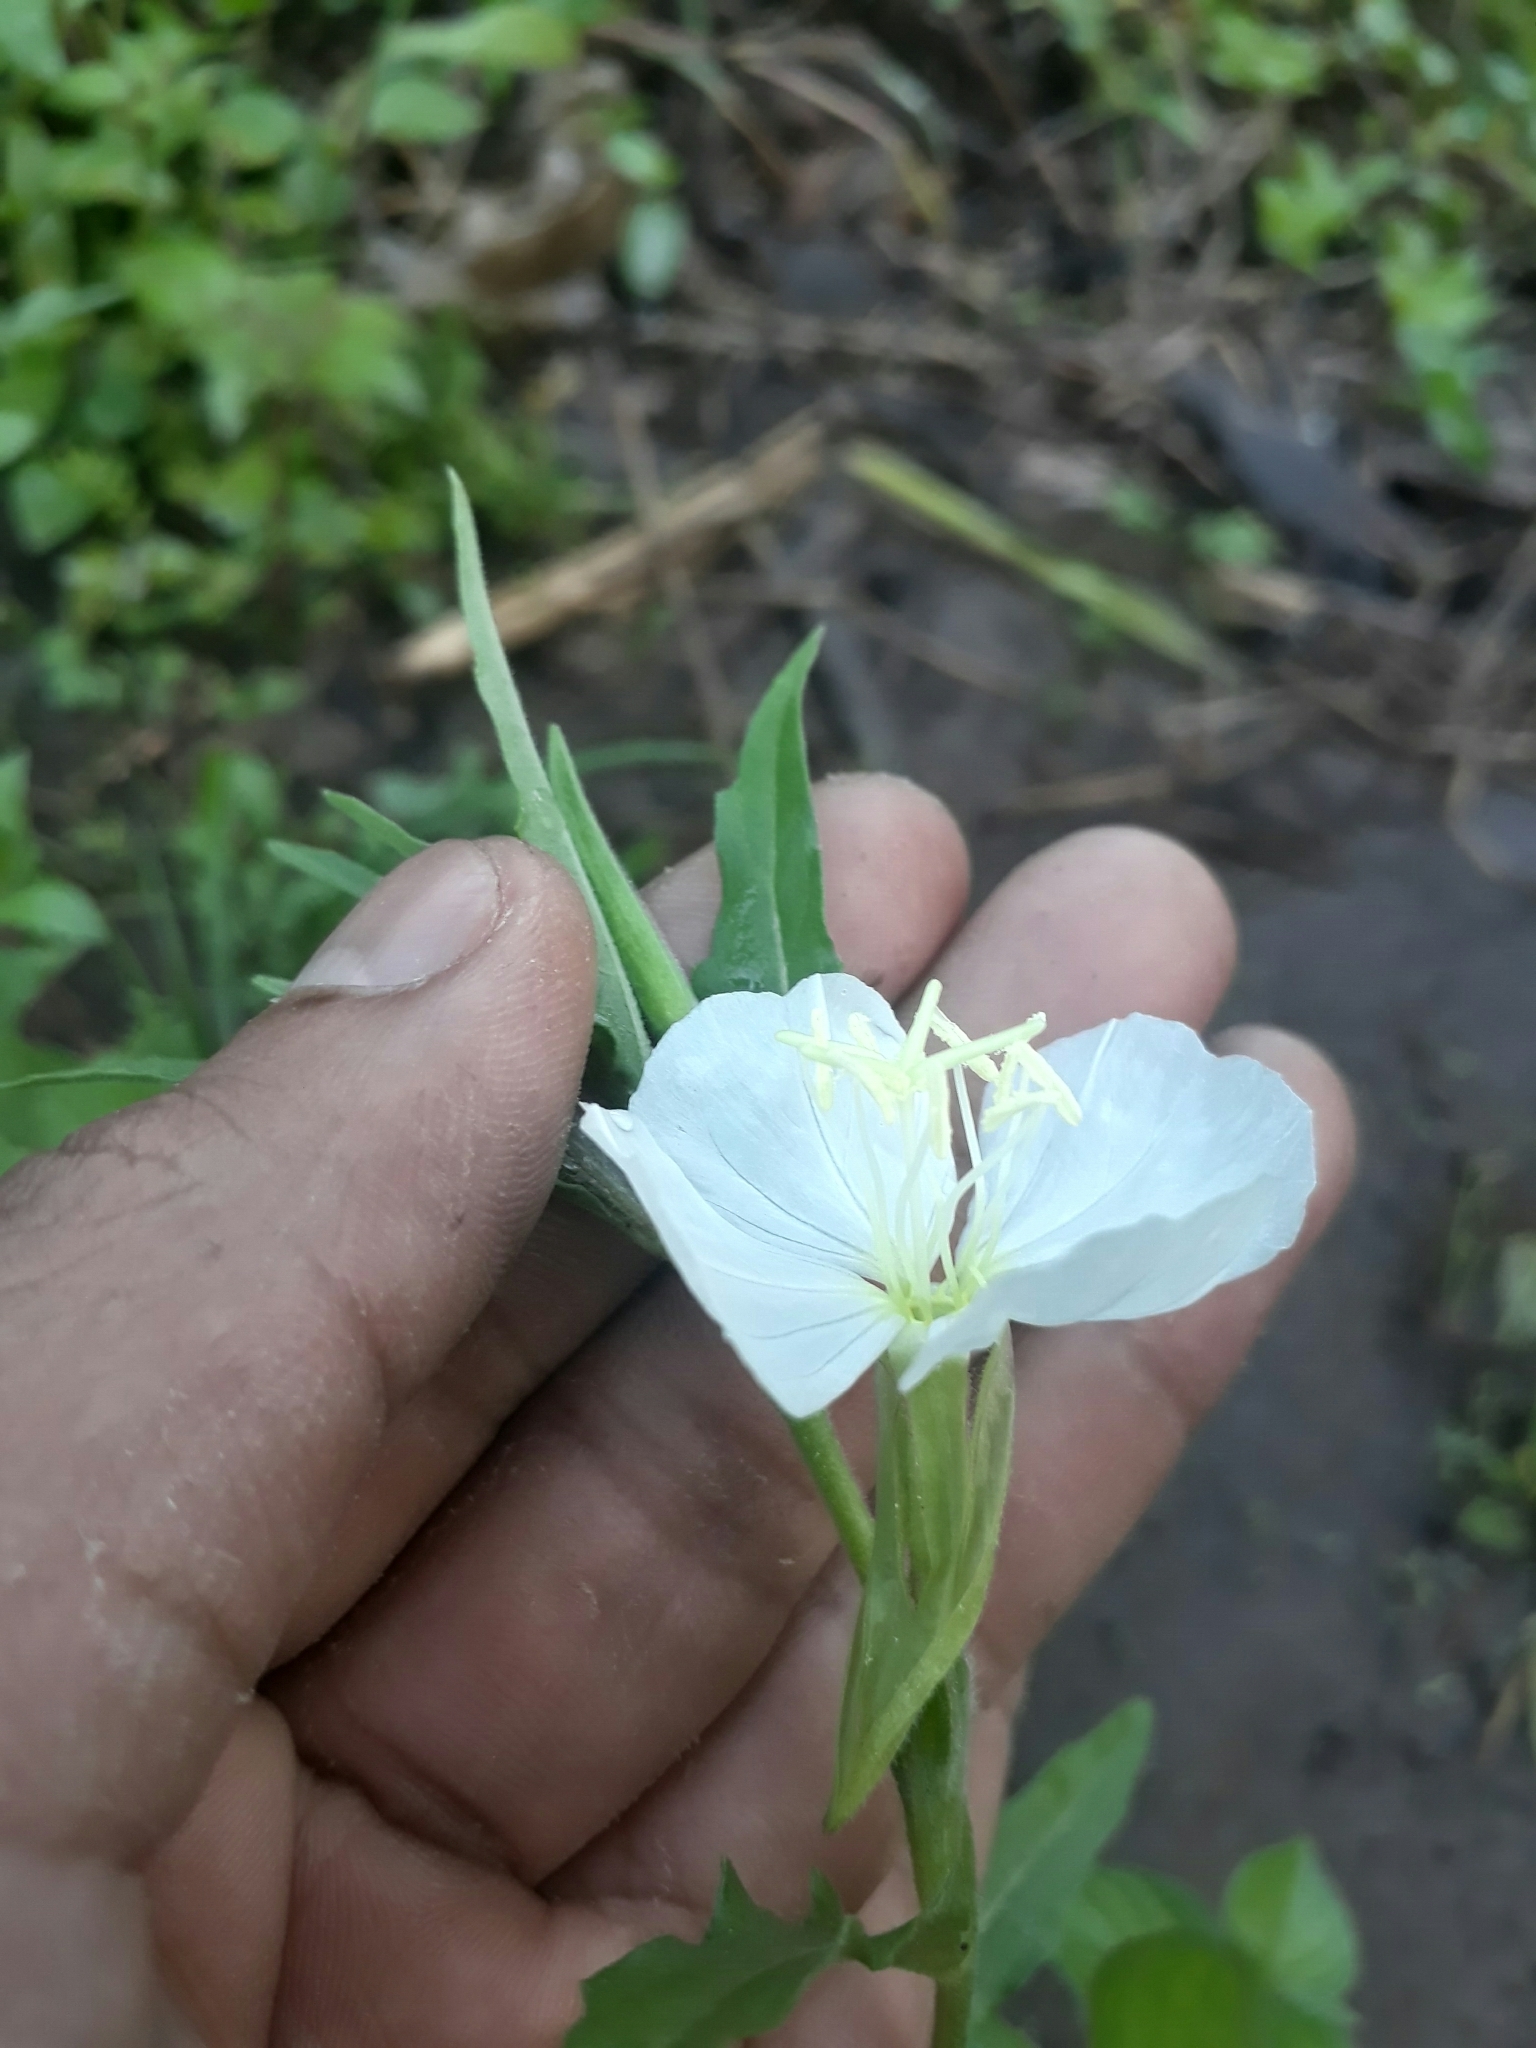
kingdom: Plantae
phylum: Tracheophyta
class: Magnoliopsida
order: Myrtales
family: Onagraceae
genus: Oenothera
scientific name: Oenothera tetraptera
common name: Four-wing evening-primrose
